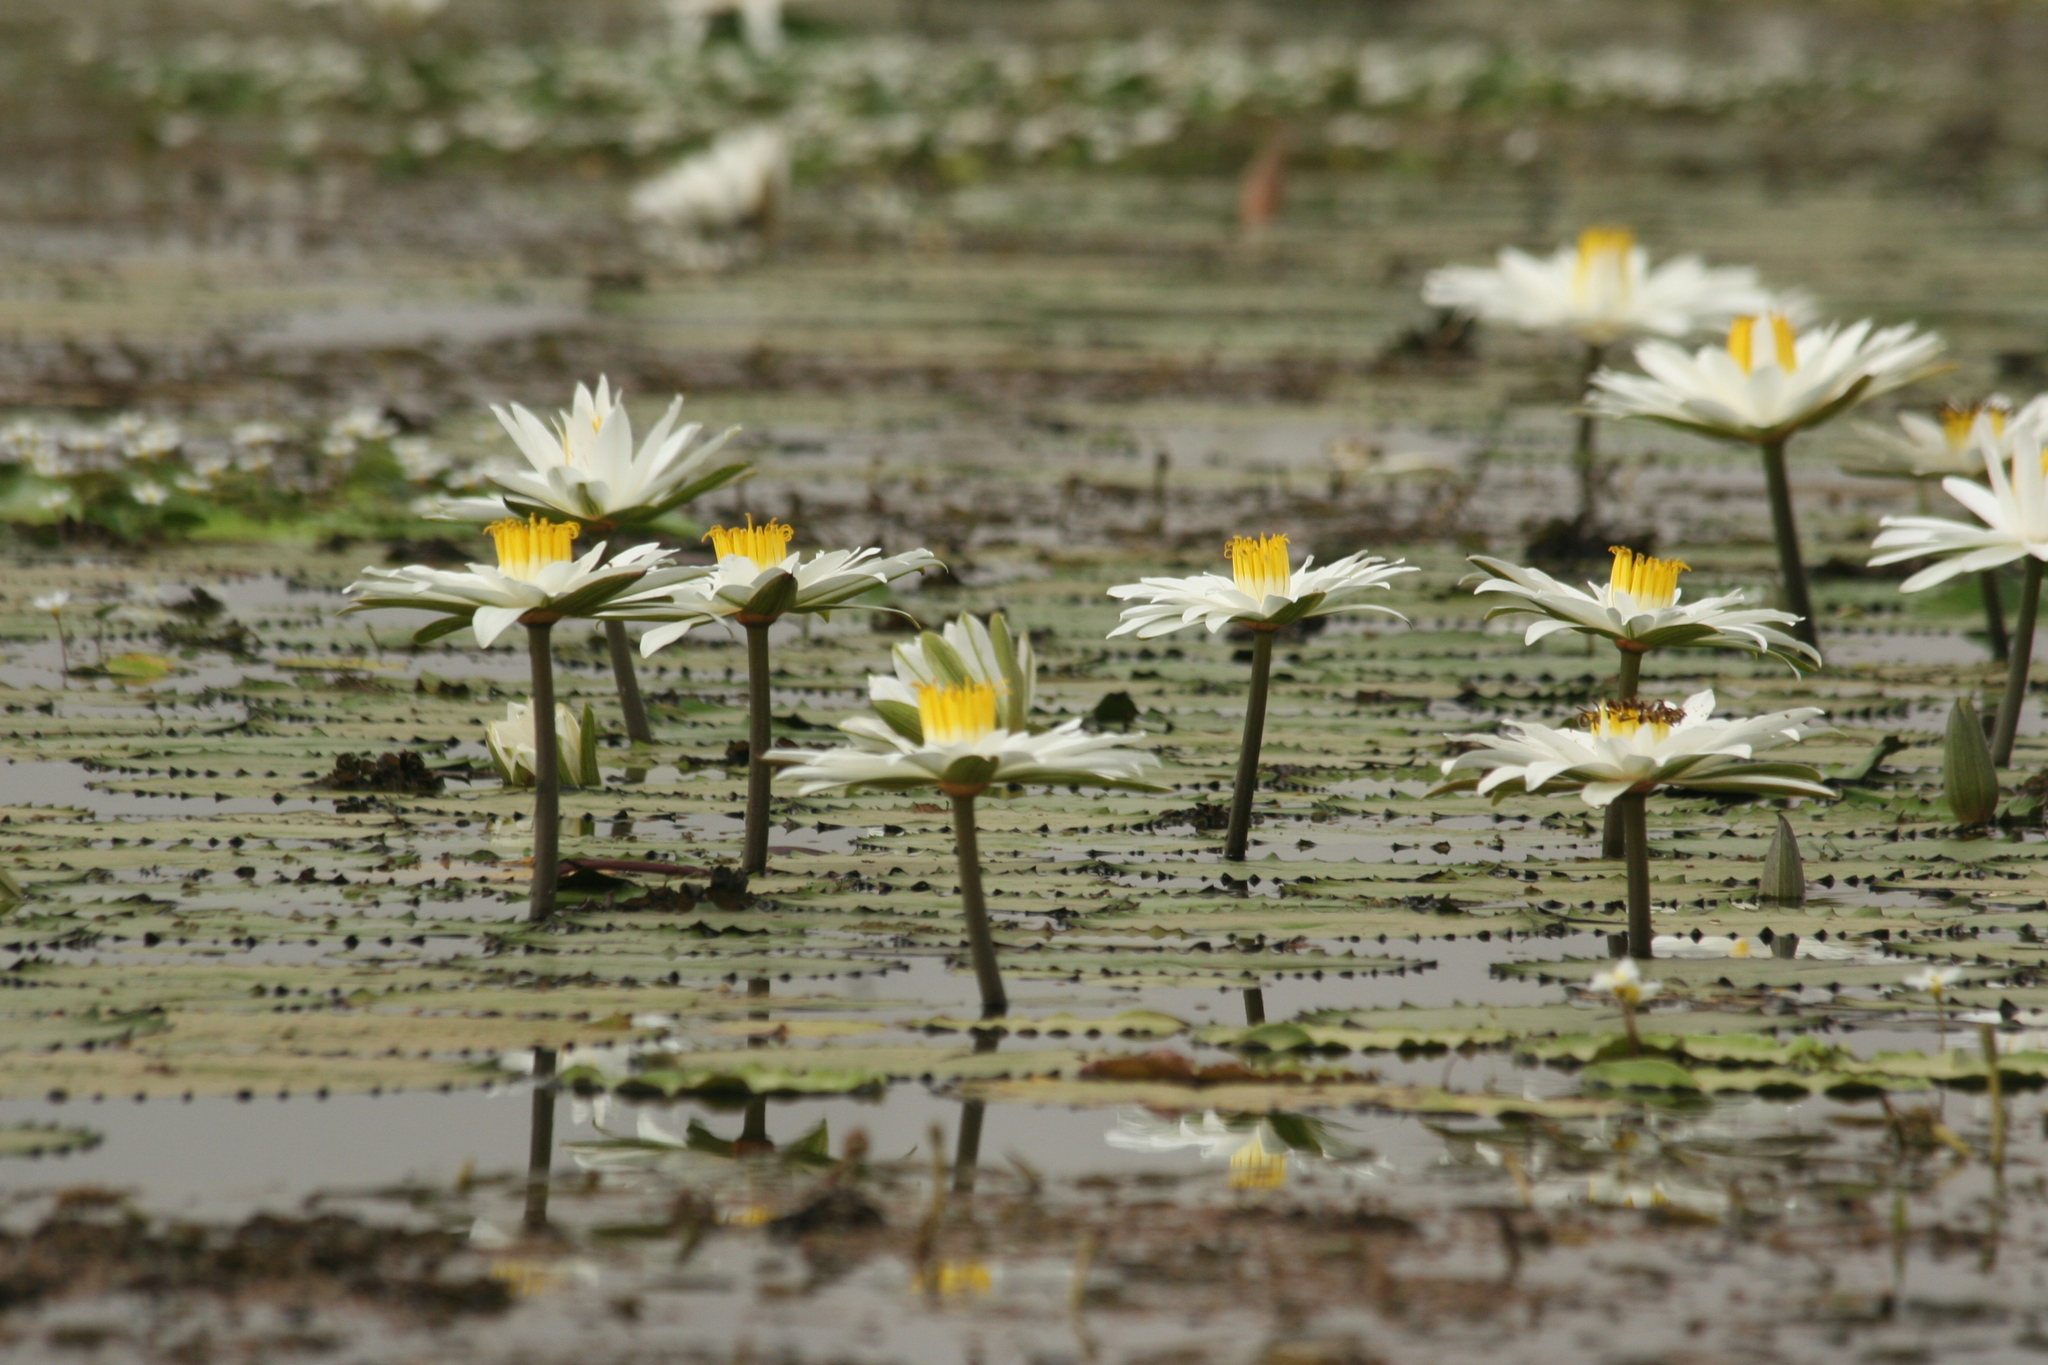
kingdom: Plantae
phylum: Tracheophyta
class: Magnoliopsida
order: Nymphaeales
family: Nymphaeaceae
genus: Nymphaea
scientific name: Nymphaea lotus
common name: White egyptian lotus
